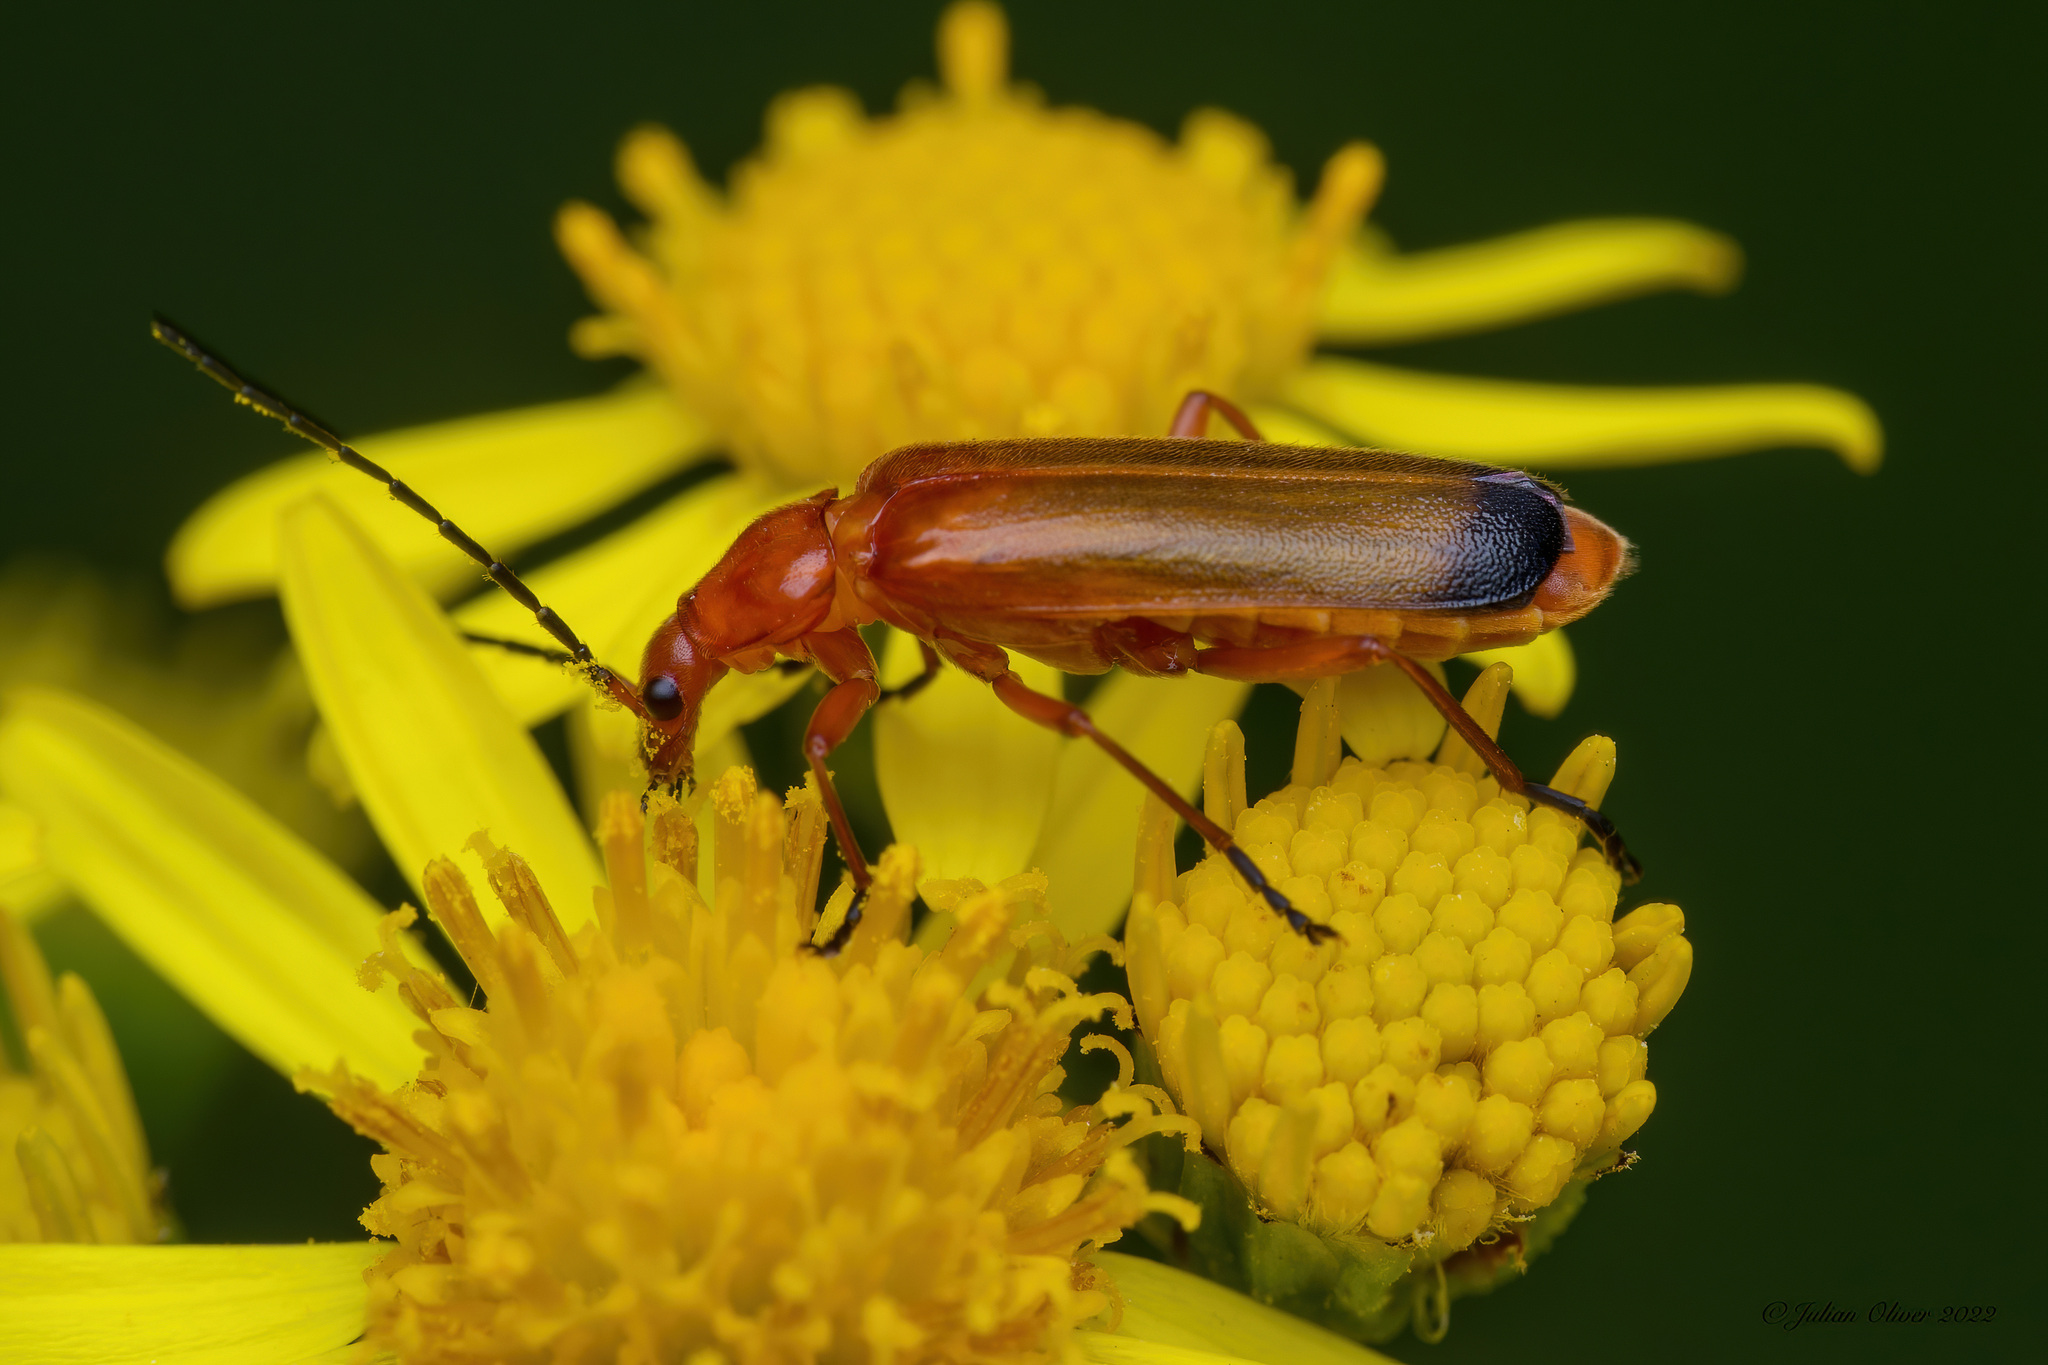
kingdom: Animalia
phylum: Arthropoda
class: Insecta
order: Coleoptera
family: Cantharidae
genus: Rhagonycha
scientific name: Rhagonycha fulva
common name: Common red soldier beetle
